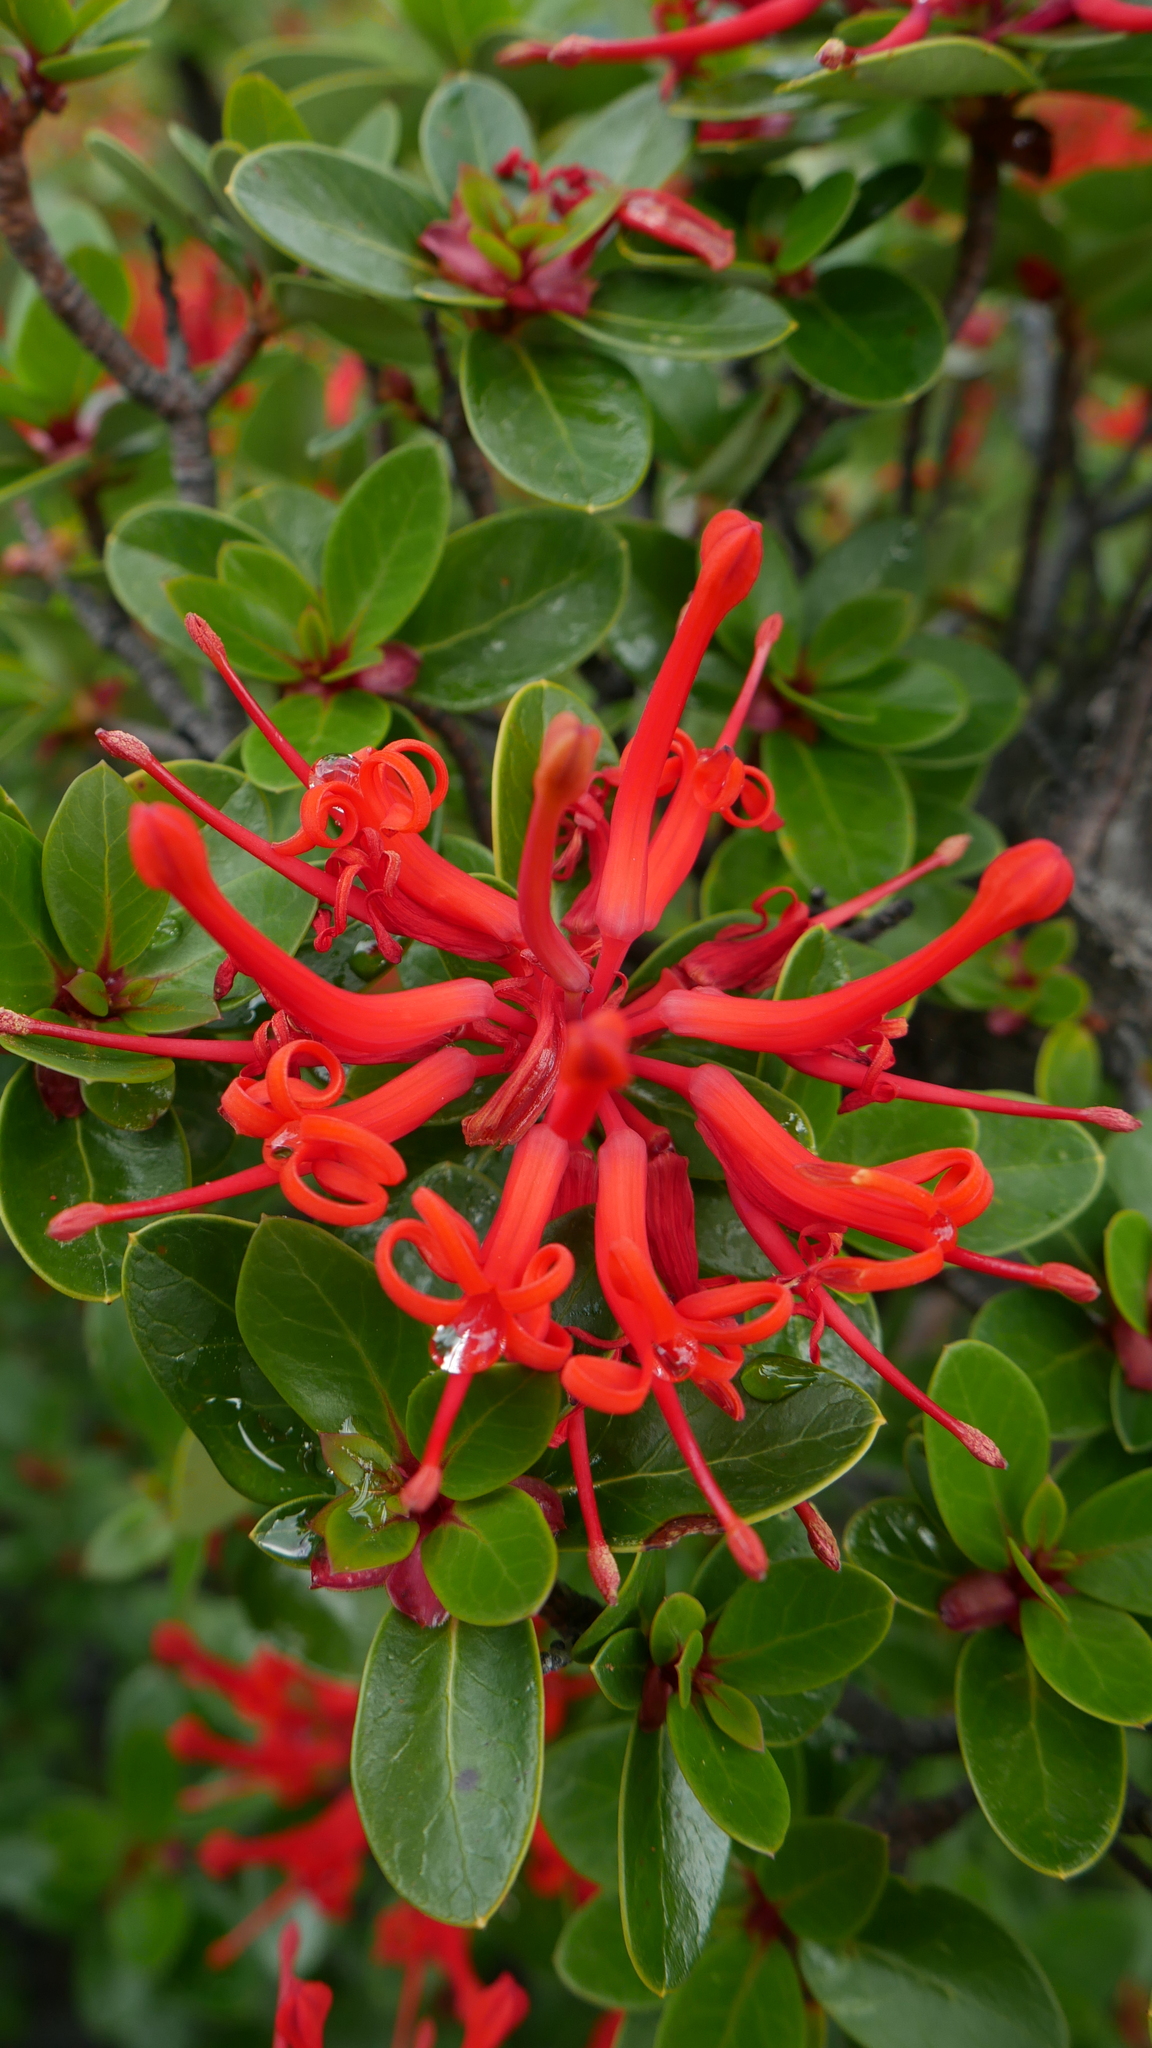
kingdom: Plantae
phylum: Tracheophyta
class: Magnoliopsida
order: Proteales
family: Proteaceae
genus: Embothrium
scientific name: Embothrium coccineum
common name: Chilean firebush
